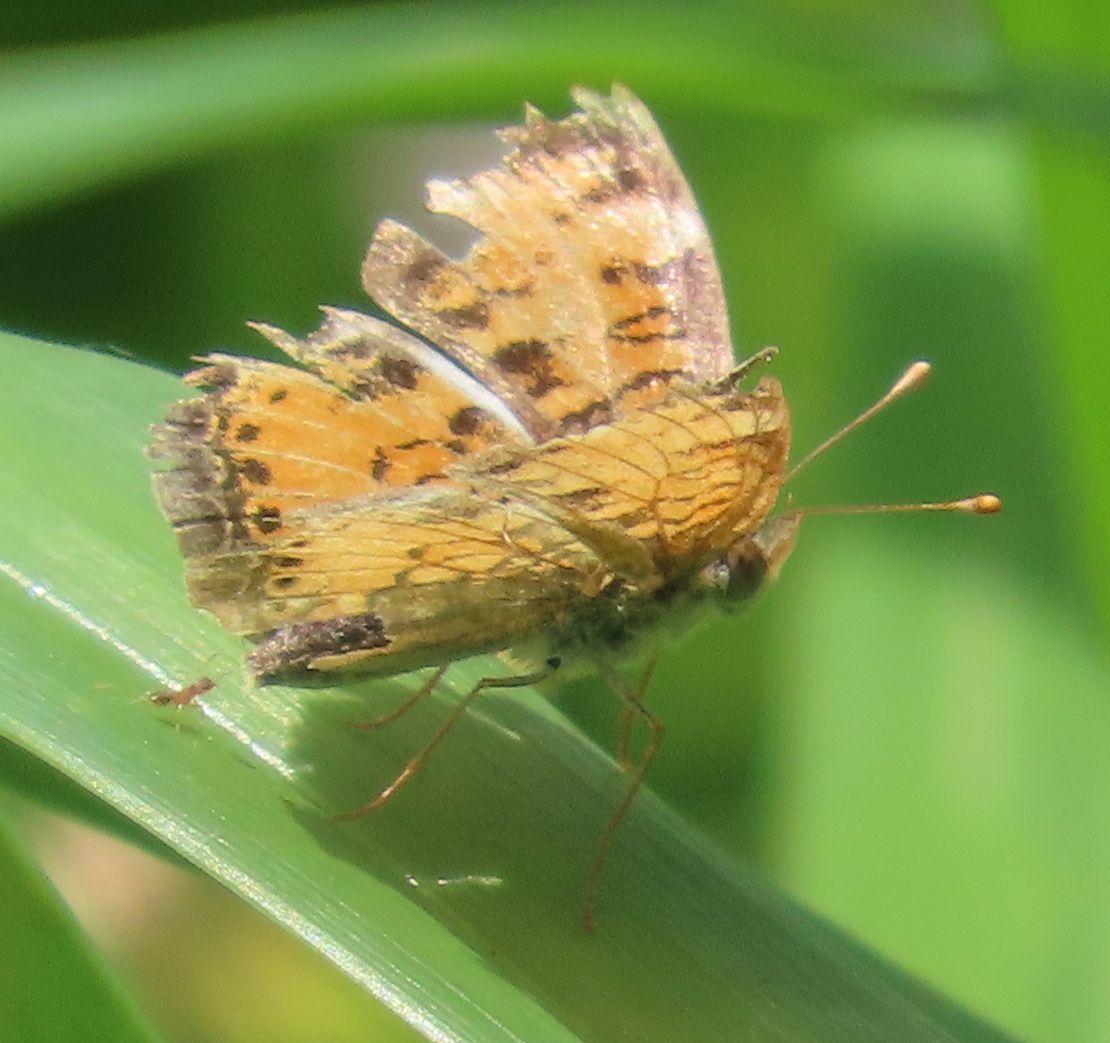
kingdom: Animalia
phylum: Arthropoda
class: Insecta
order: Lepidoptera
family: Nymphalidae
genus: Phyciodes
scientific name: Phyciodes tharos
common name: Pearl crescent
